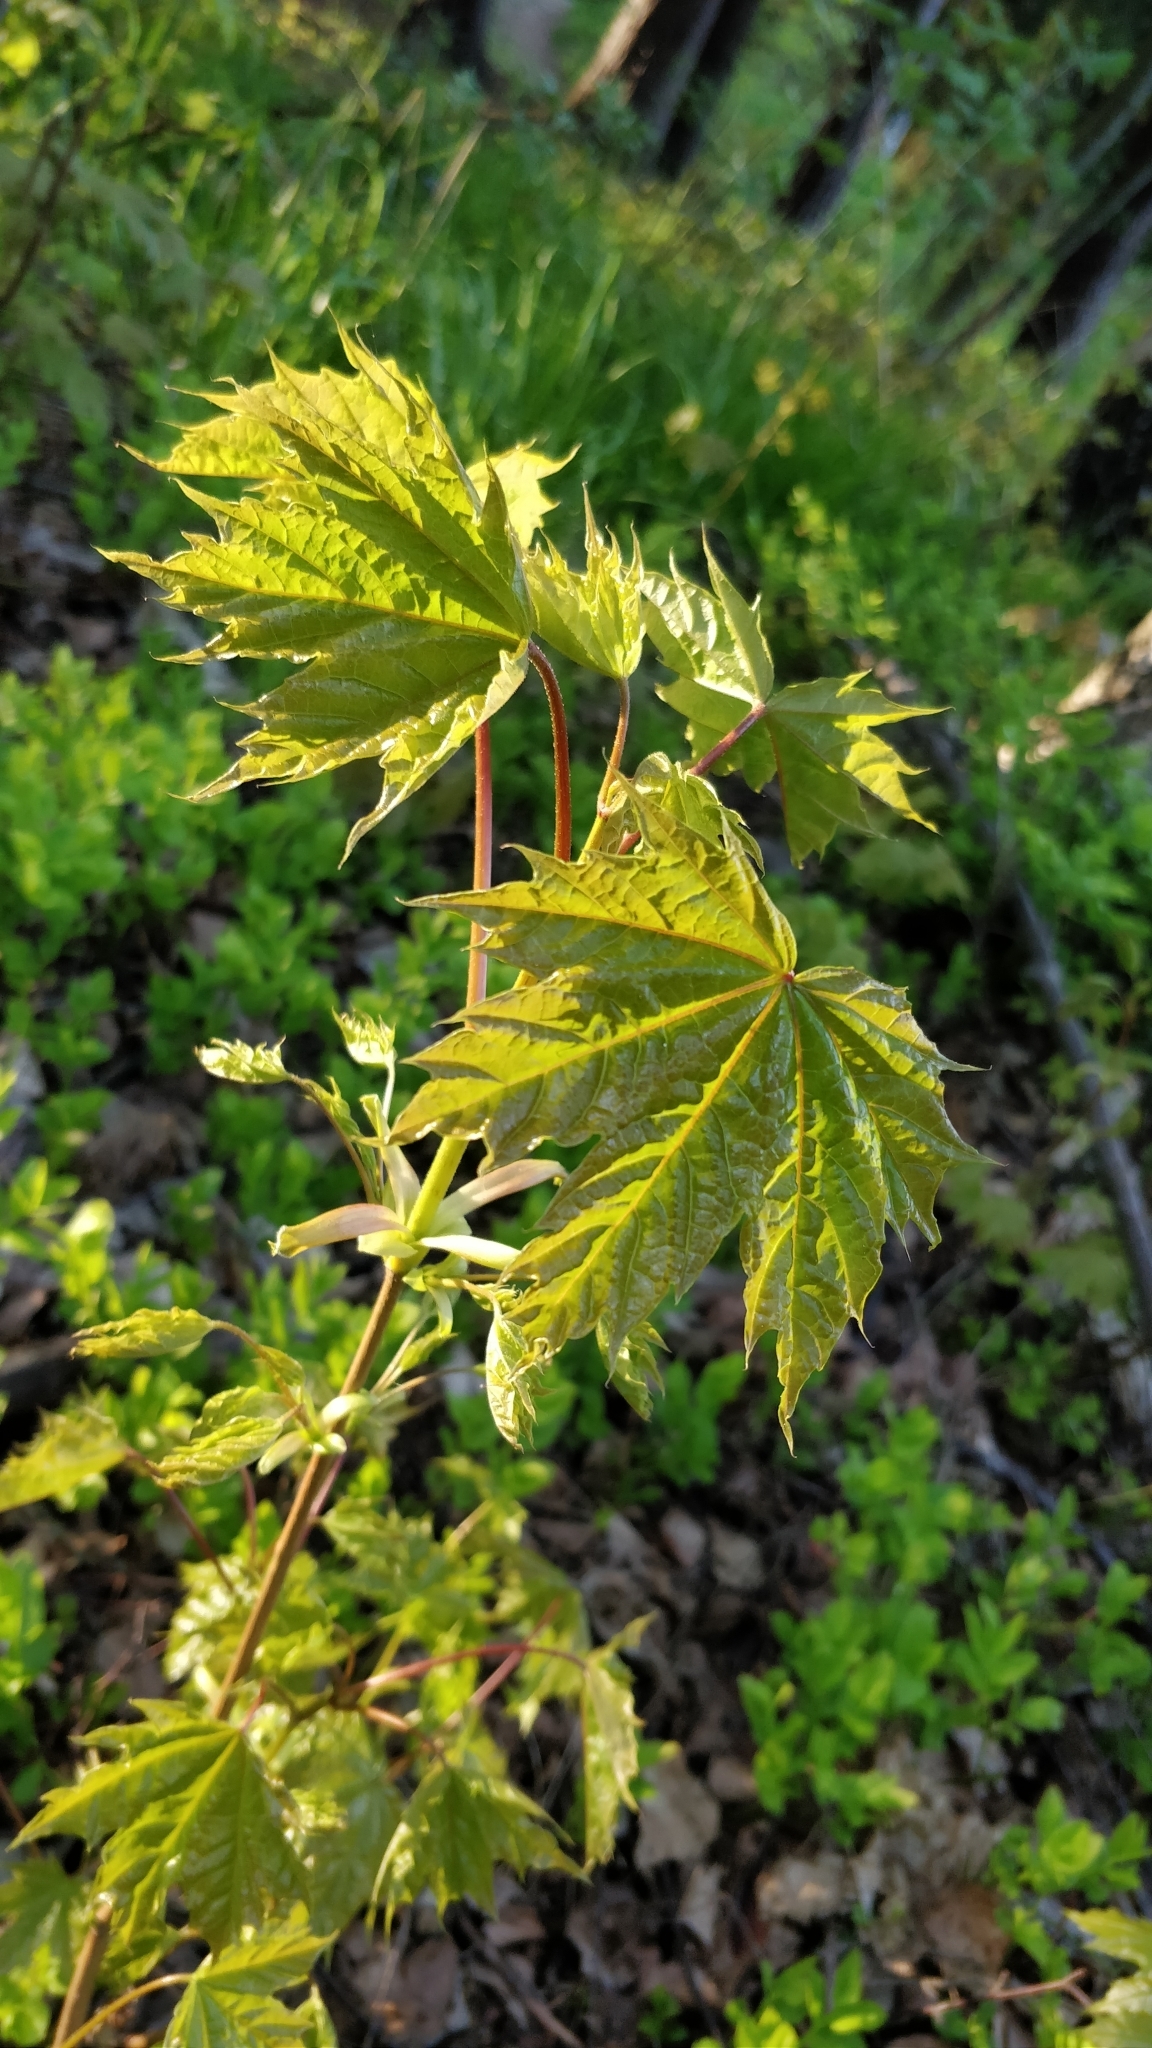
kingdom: Plantae
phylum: Tracheophyta
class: Magnoliopsida
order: Sapindales
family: Sapindaceae
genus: Acer
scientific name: Acer platanoides
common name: Norway maple
